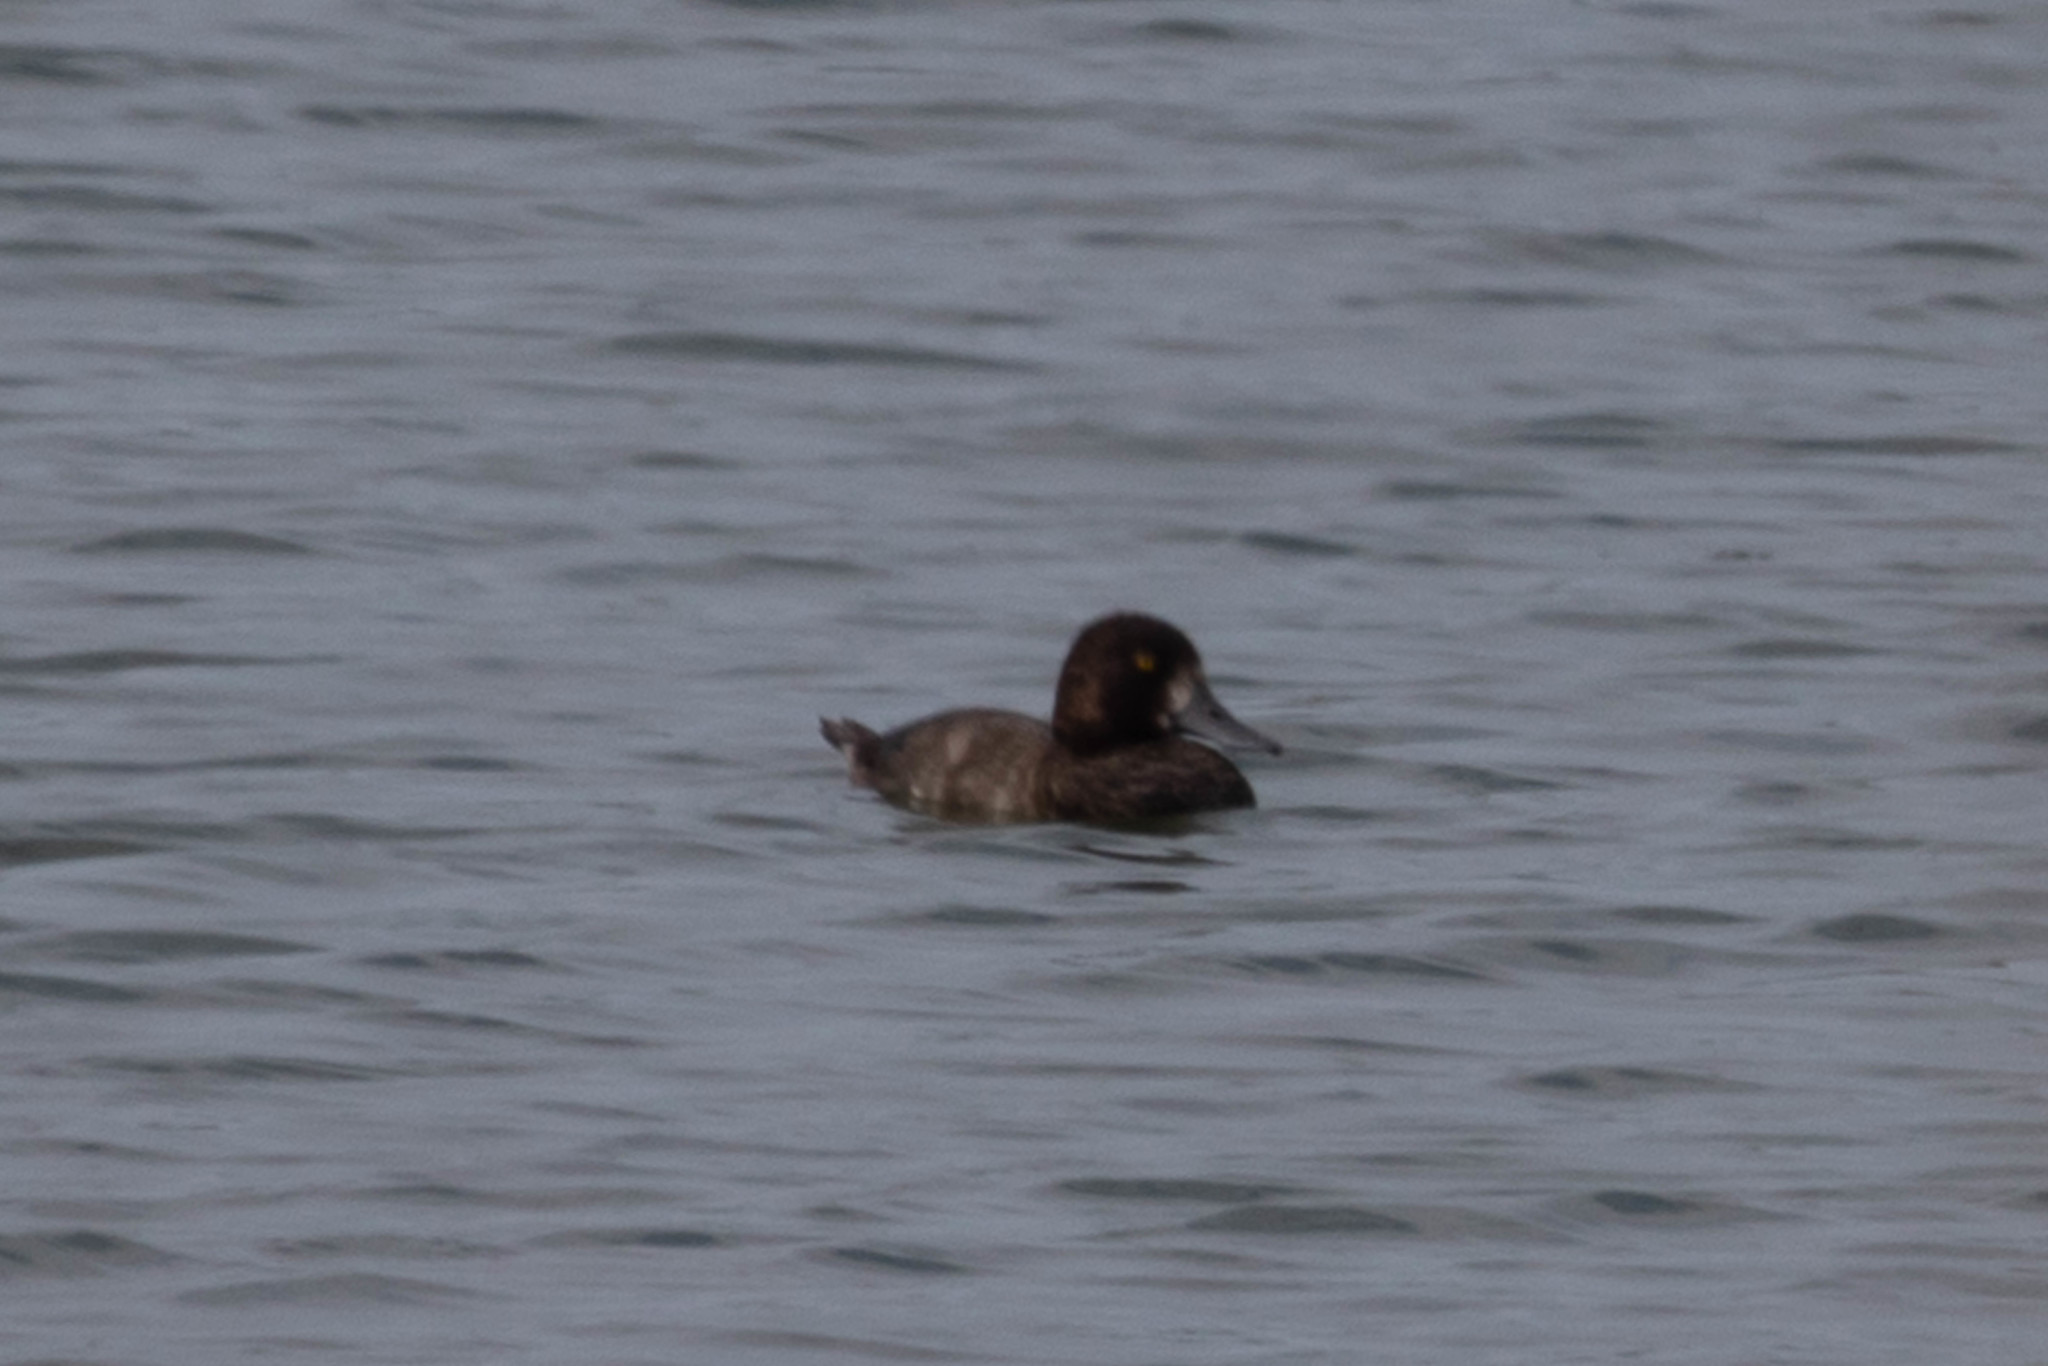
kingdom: Animalia
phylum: Chordata
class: Aves
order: Anseriformes
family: Anatidae
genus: Aythya
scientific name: Aythya marila
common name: Greater scaup
